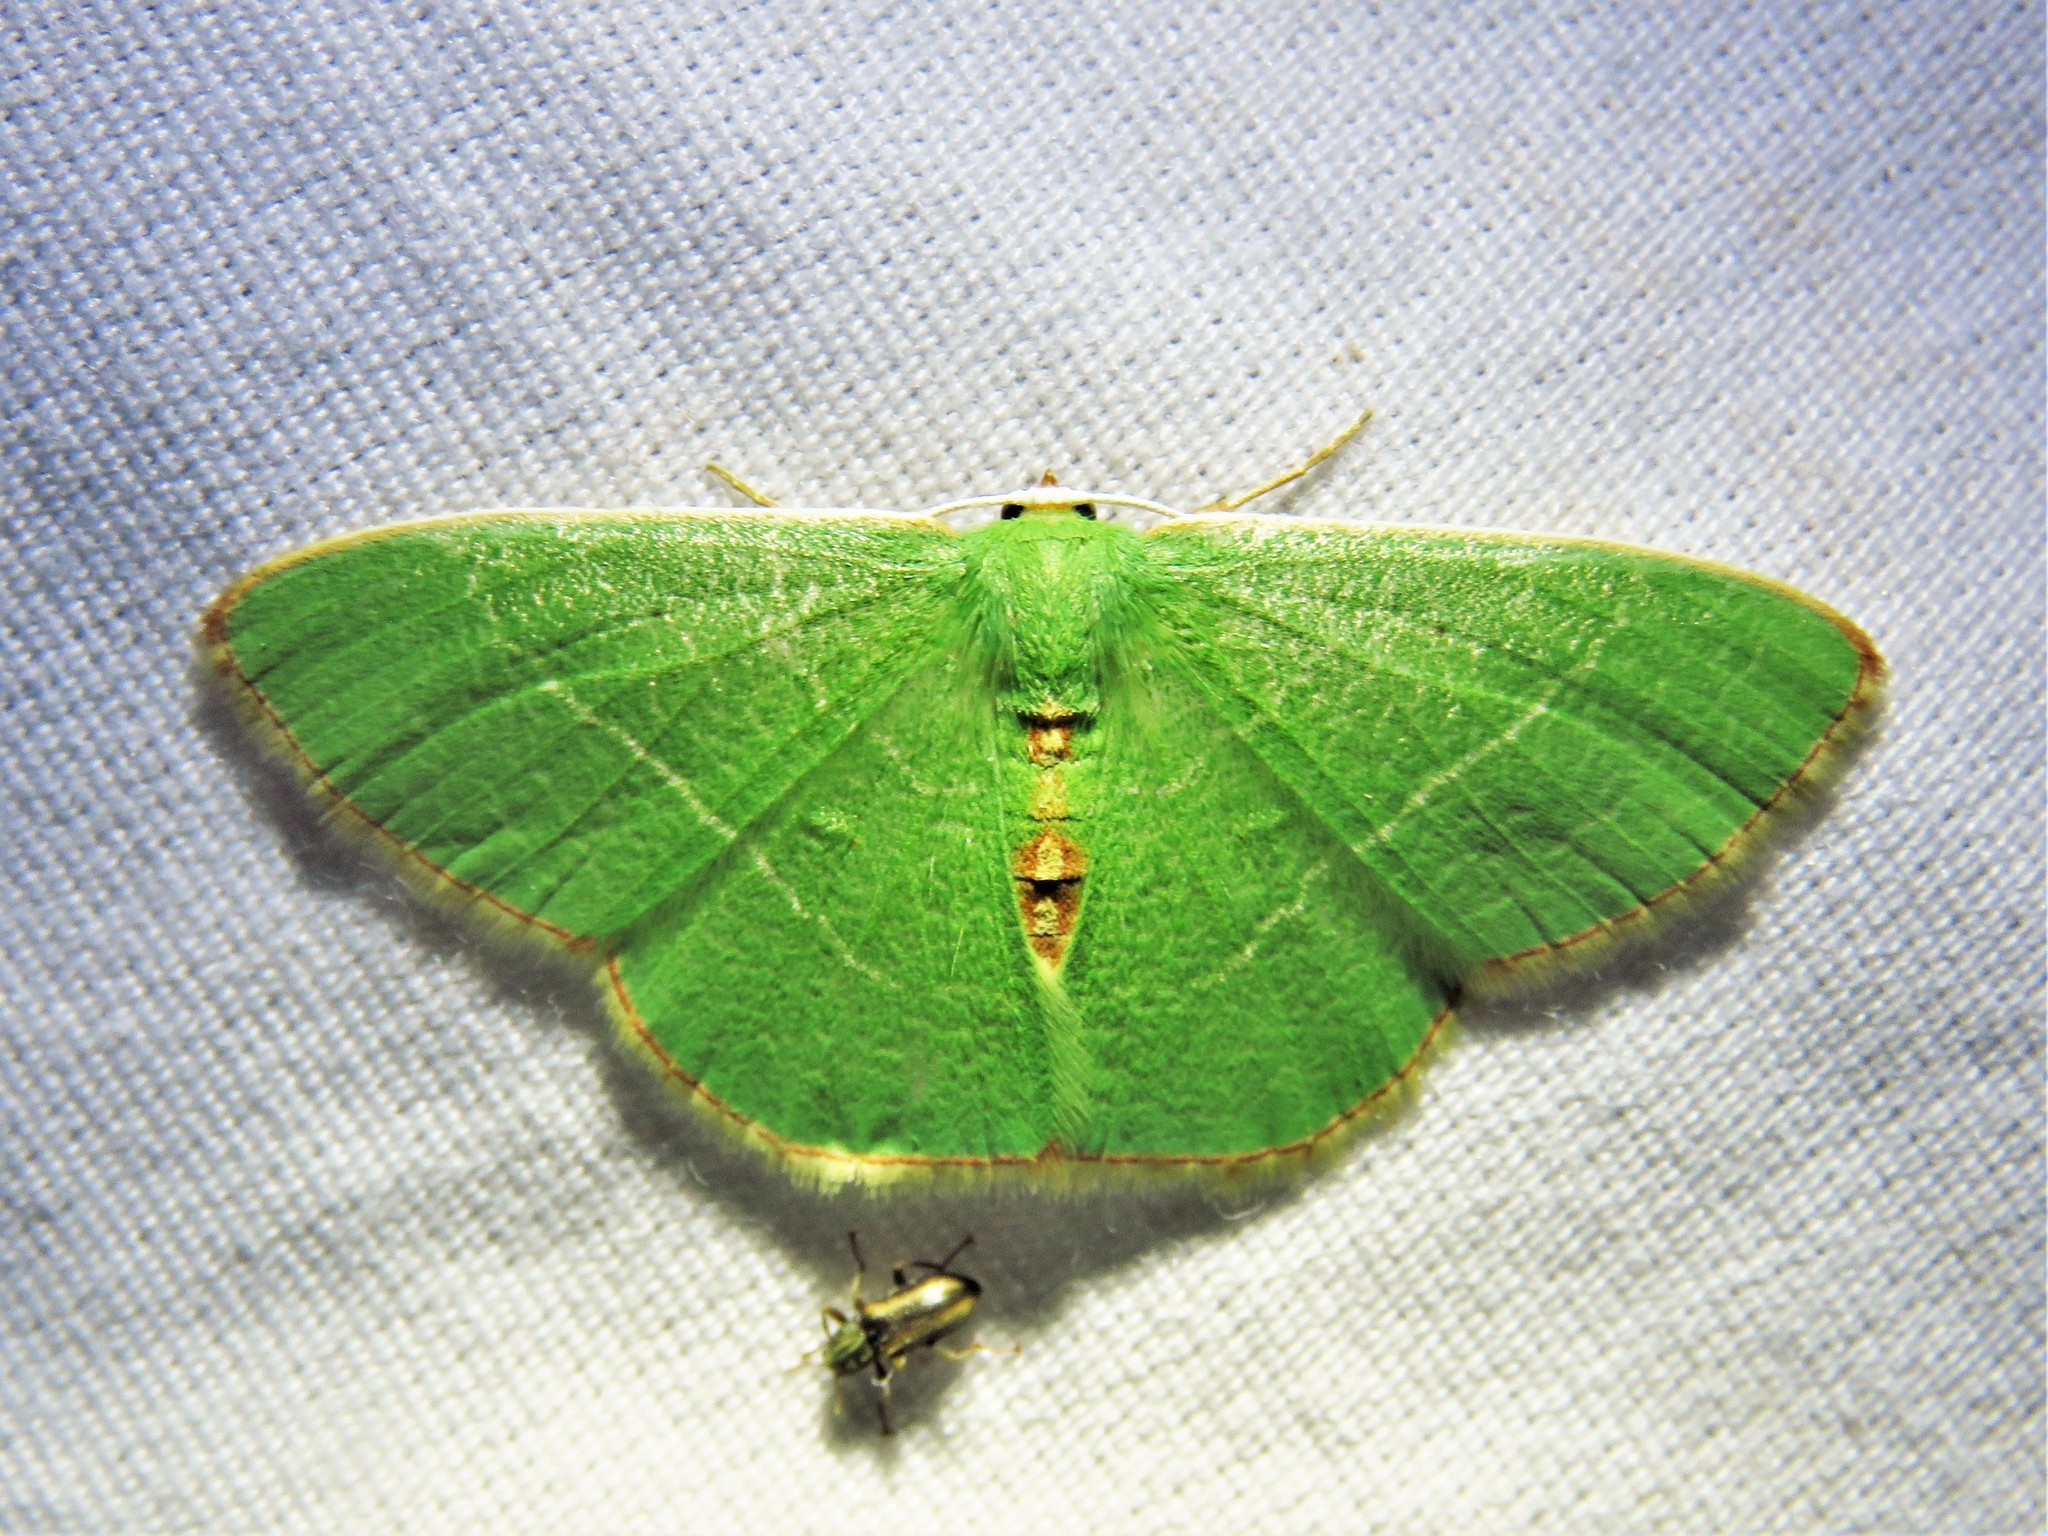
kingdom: Animalia
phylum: Arthropoda
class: Insecta
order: Lepidoptera
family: Geometridae
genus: Nemoria
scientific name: Nemoria bistriaria
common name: Red-fringed emerald
